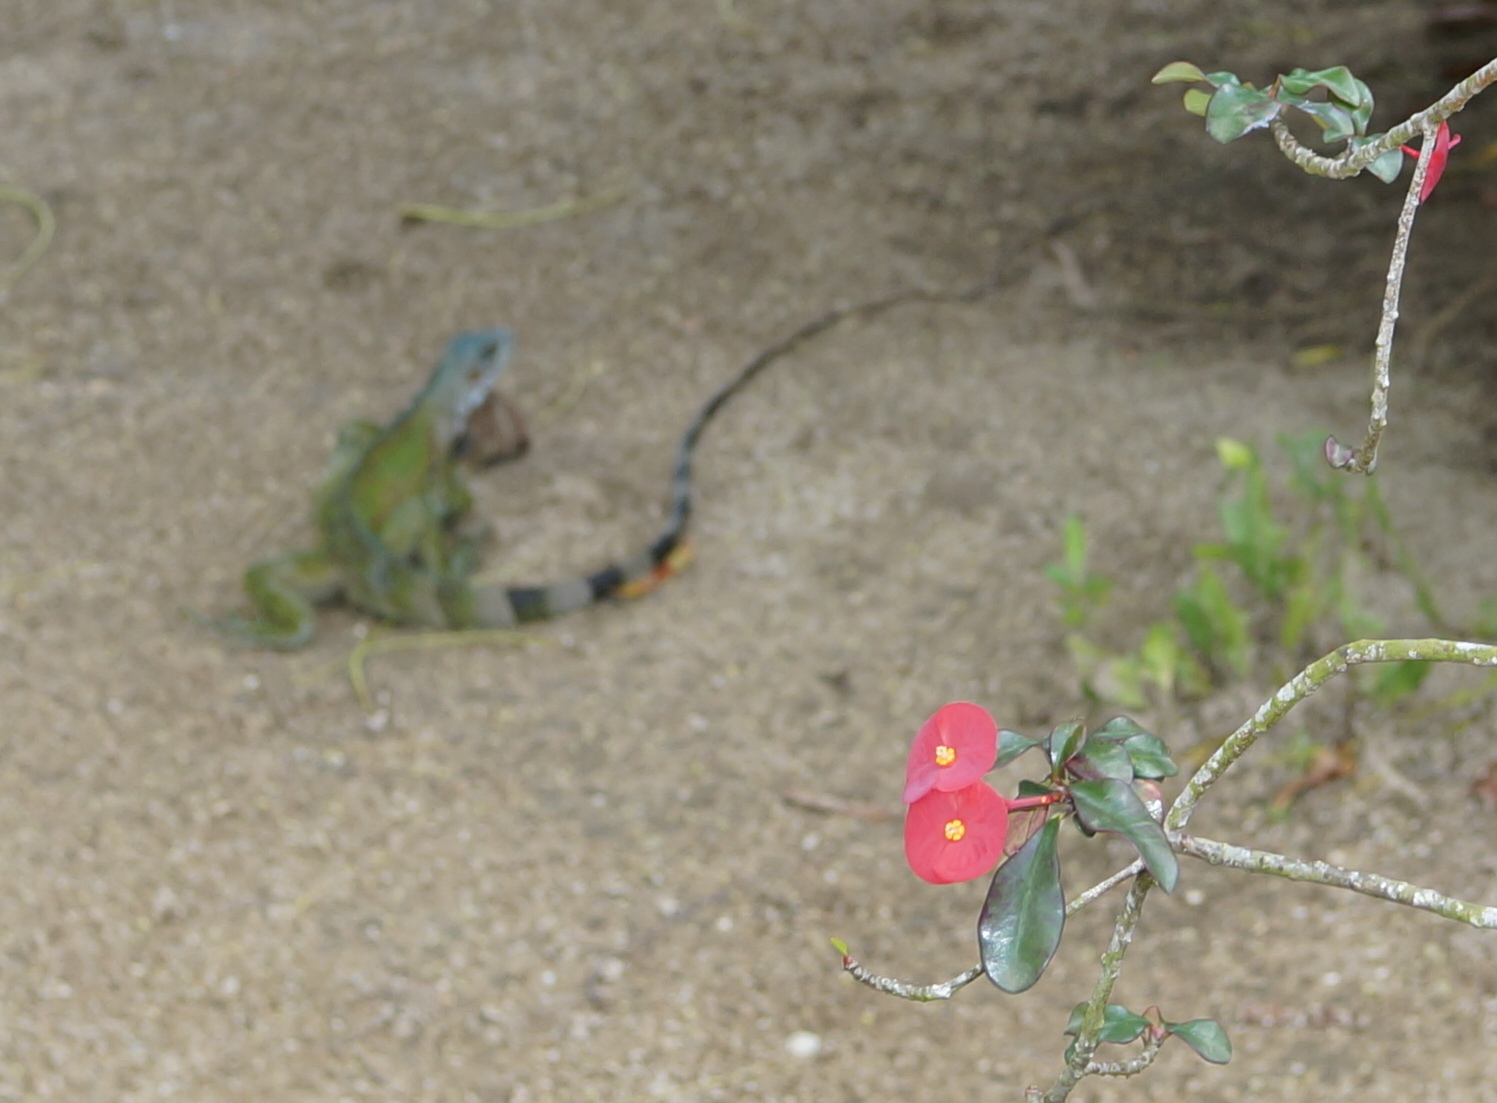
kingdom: Animalia
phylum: Chordata
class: Squamata
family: Iguanidae
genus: Iguana
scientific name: Iguana iguana
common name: Green iguana
